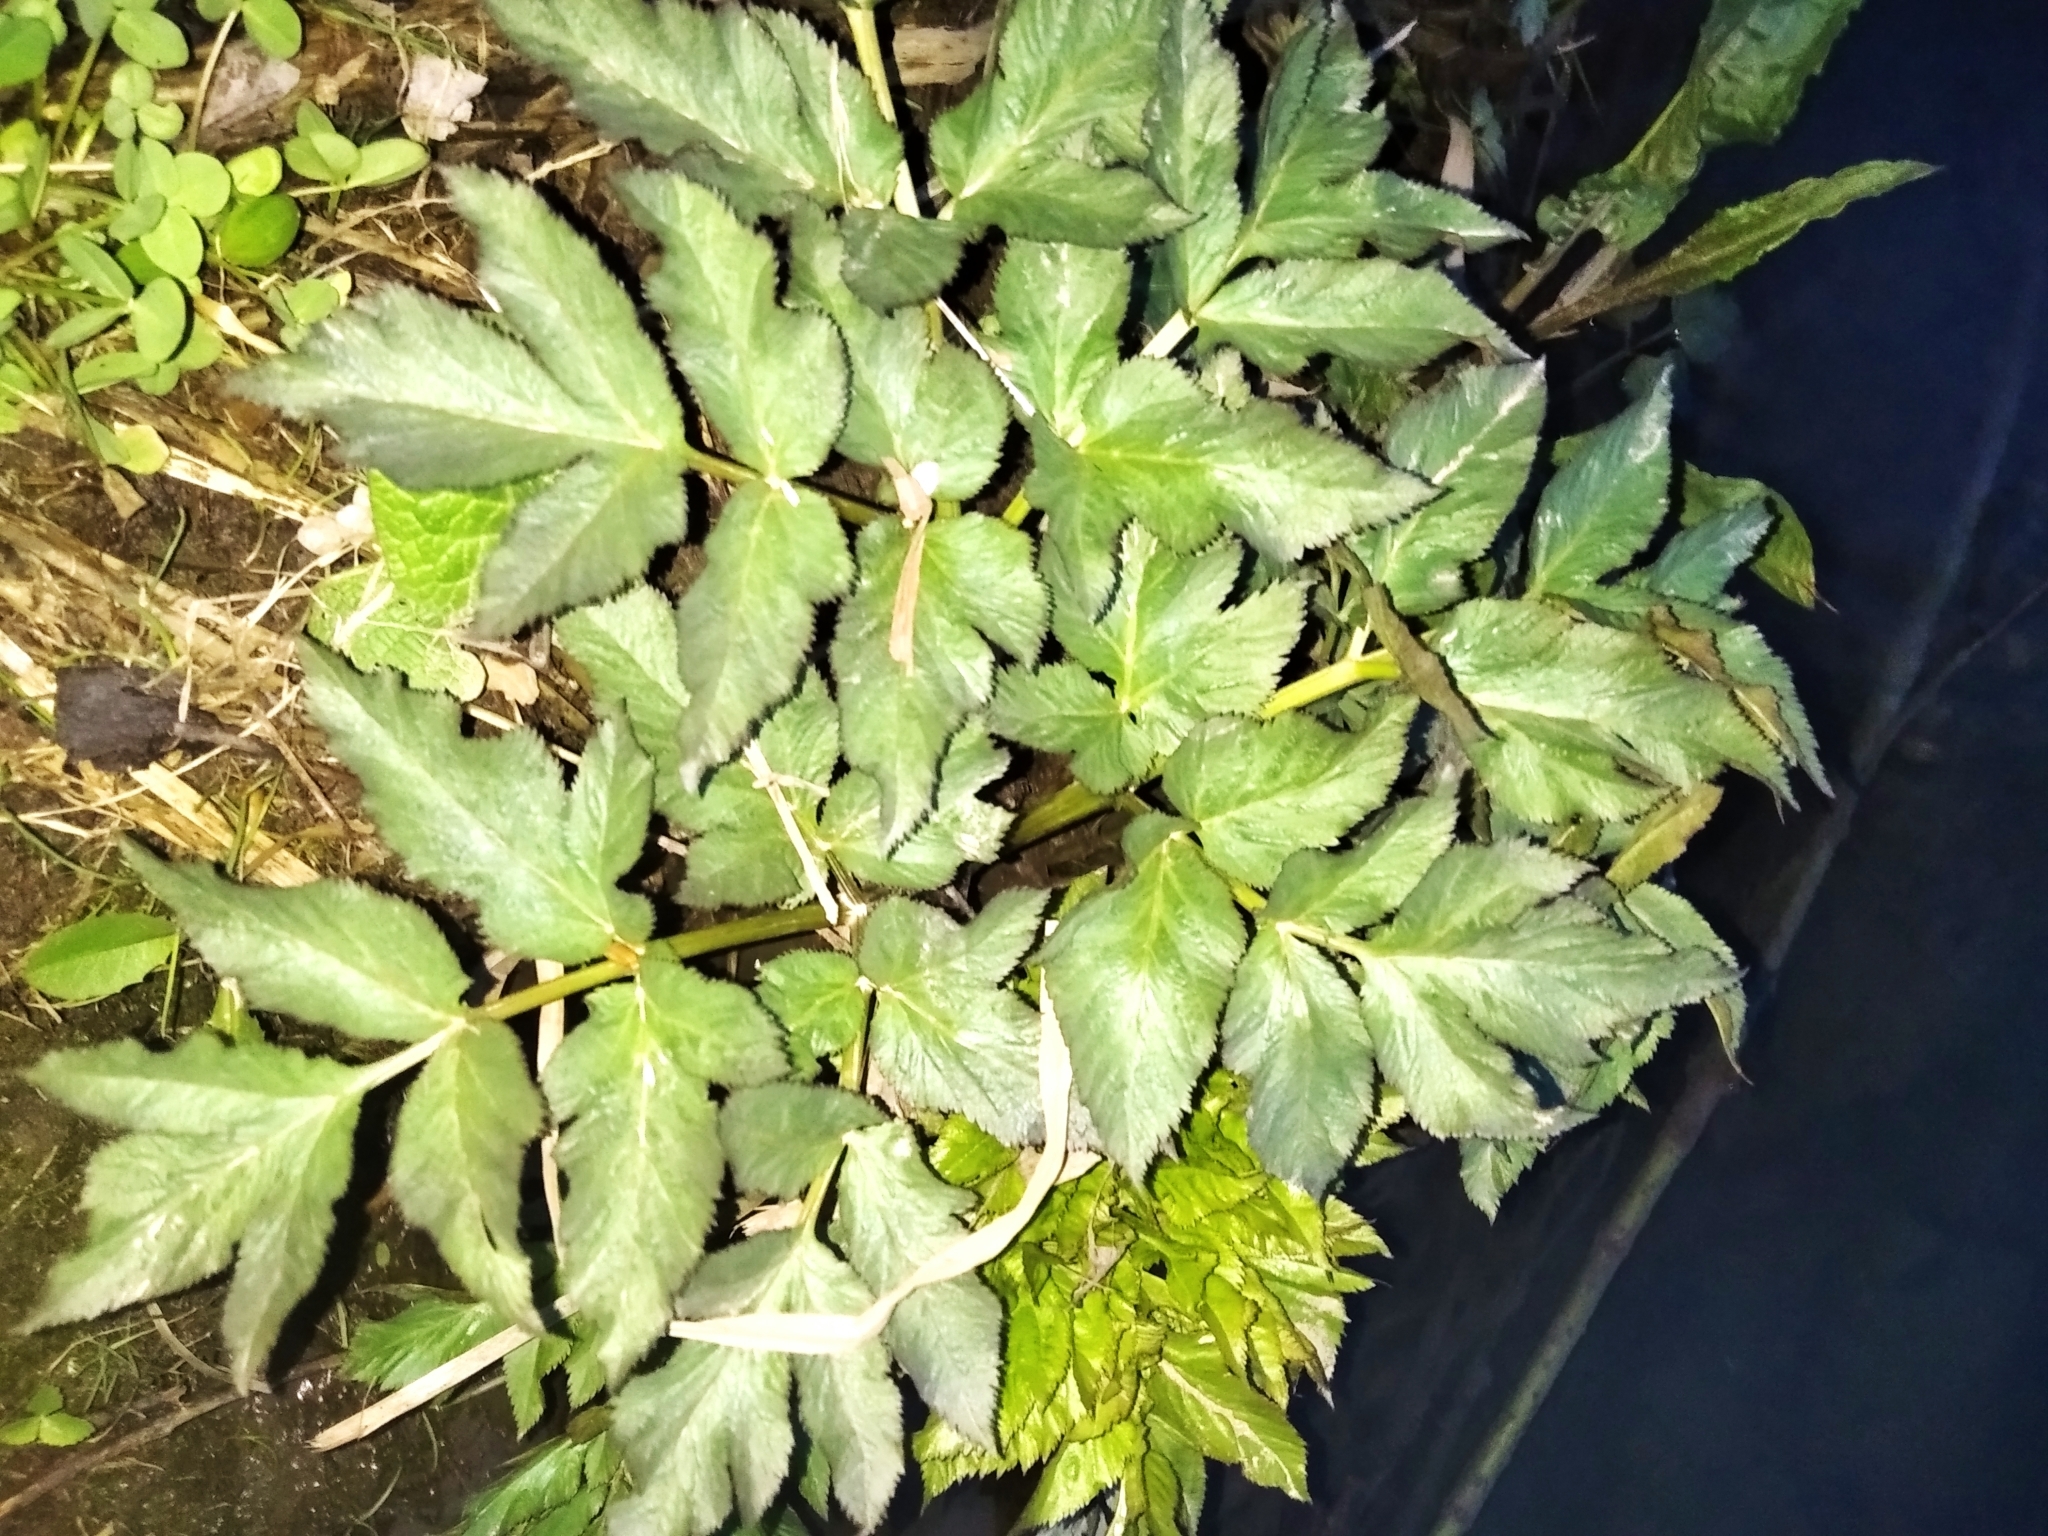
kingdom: Plantae
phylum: Tracheophyta
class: Magnoliopsida
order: Apiales
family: Apiaceae
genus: Angelica
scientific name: Angelica archangelica
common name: Garden angelica
